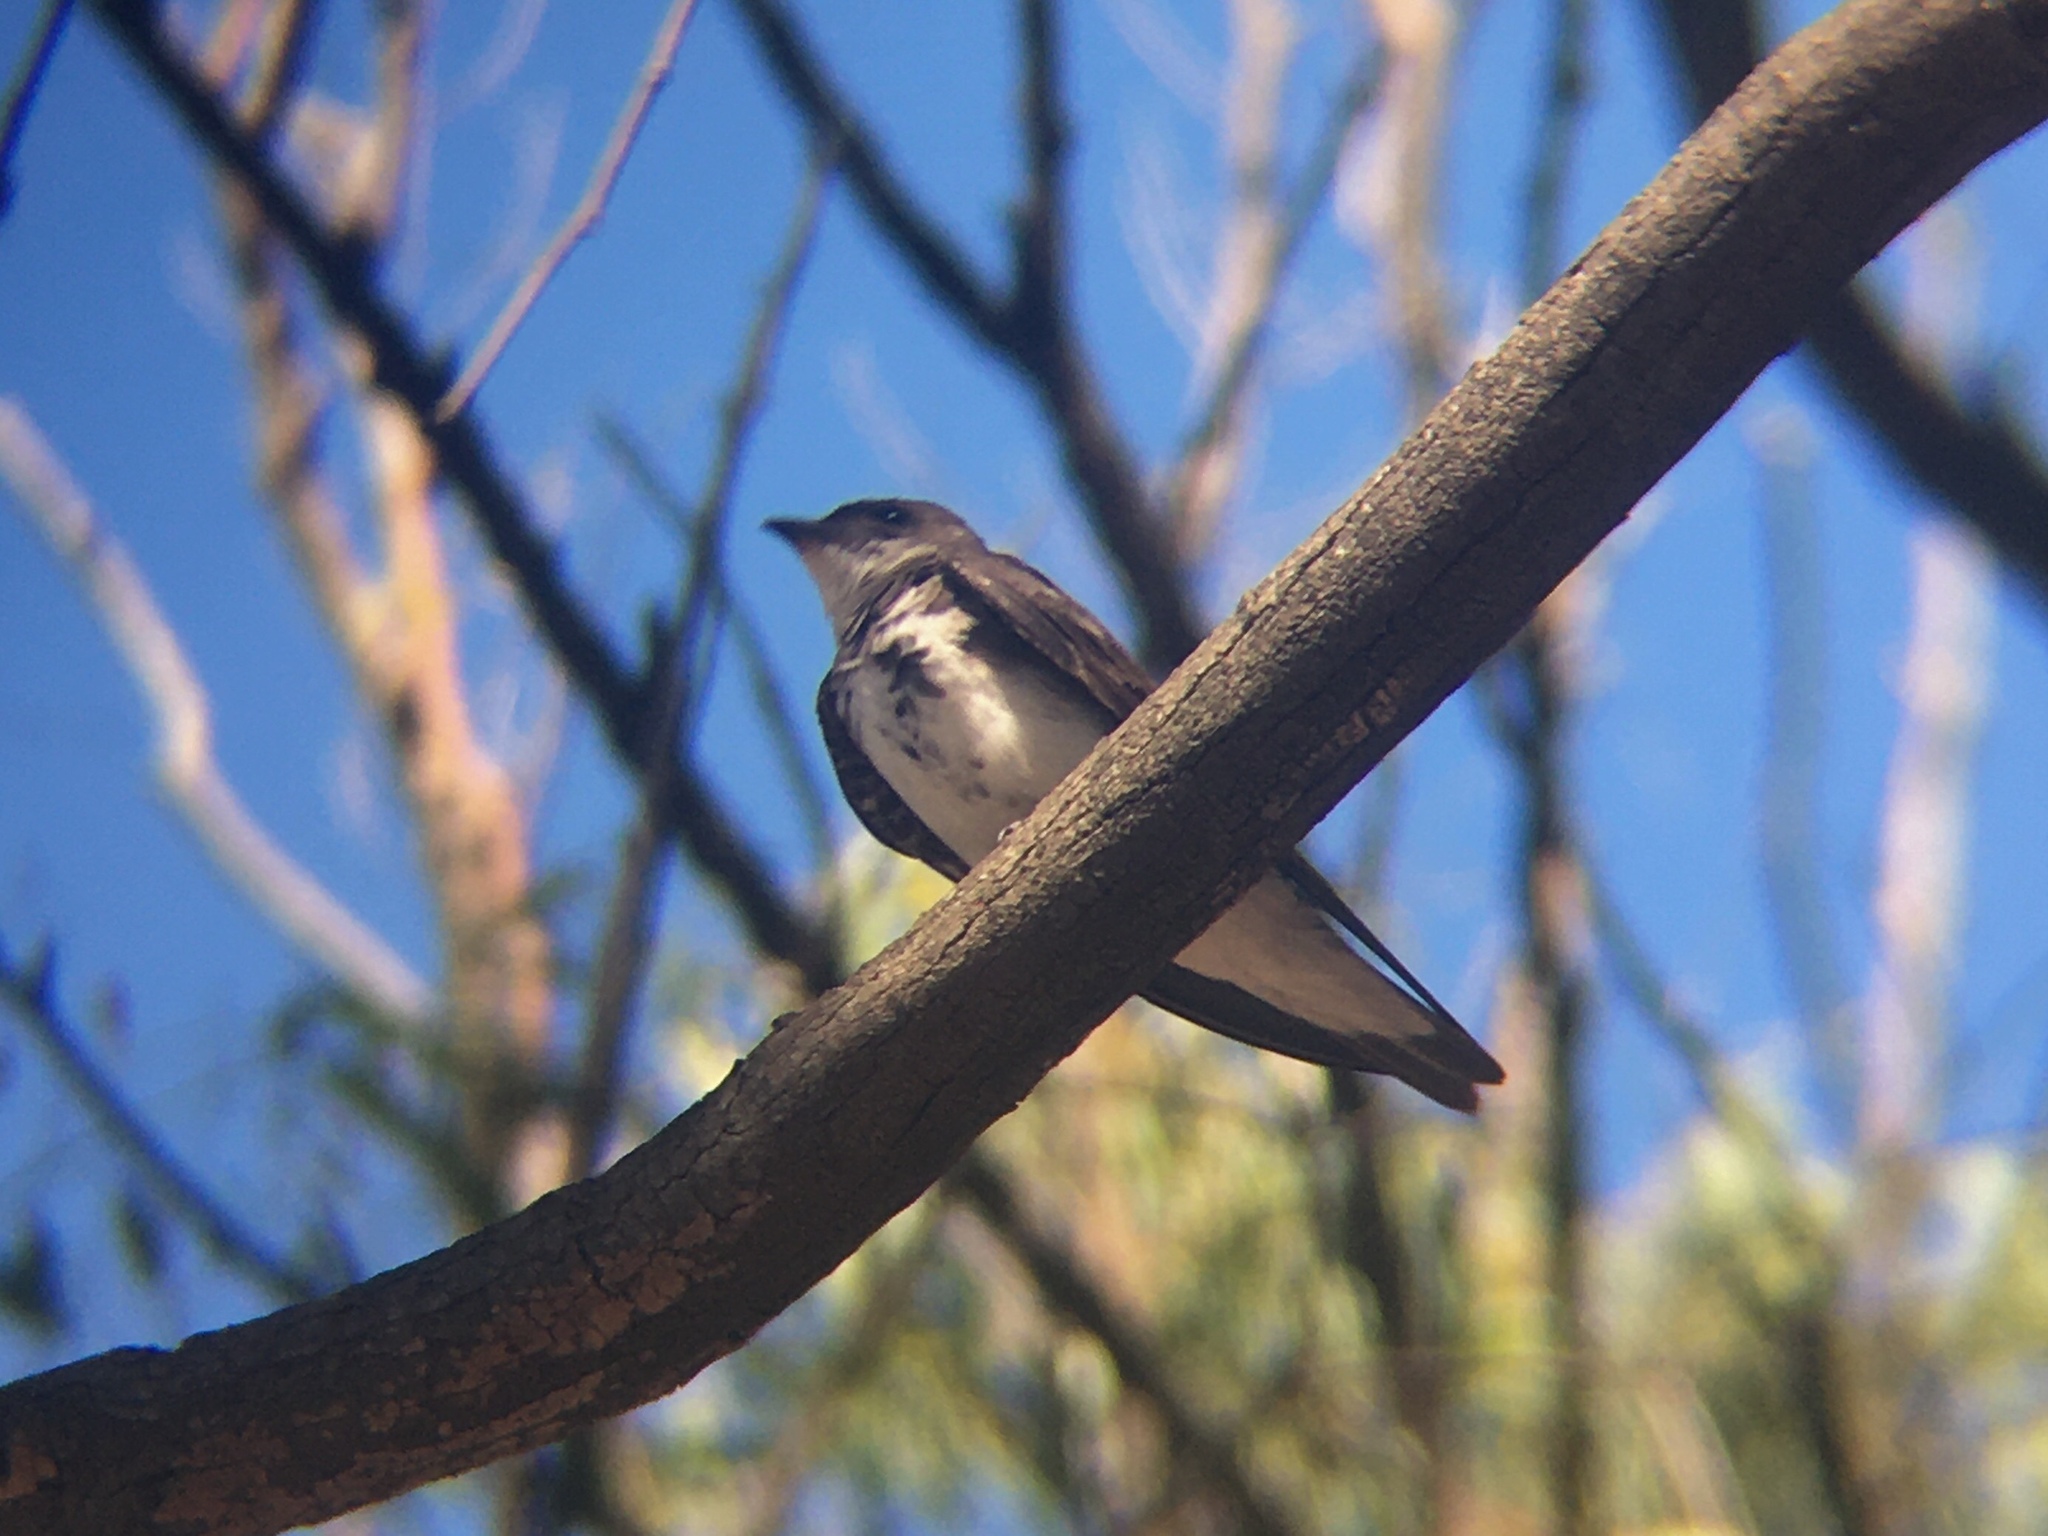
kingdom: Animalia
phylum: Chordata
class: Aves
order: Passeriformes
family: Hirundinidae
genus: Progne
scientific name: Progne tapera
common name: Brown-chested martin
